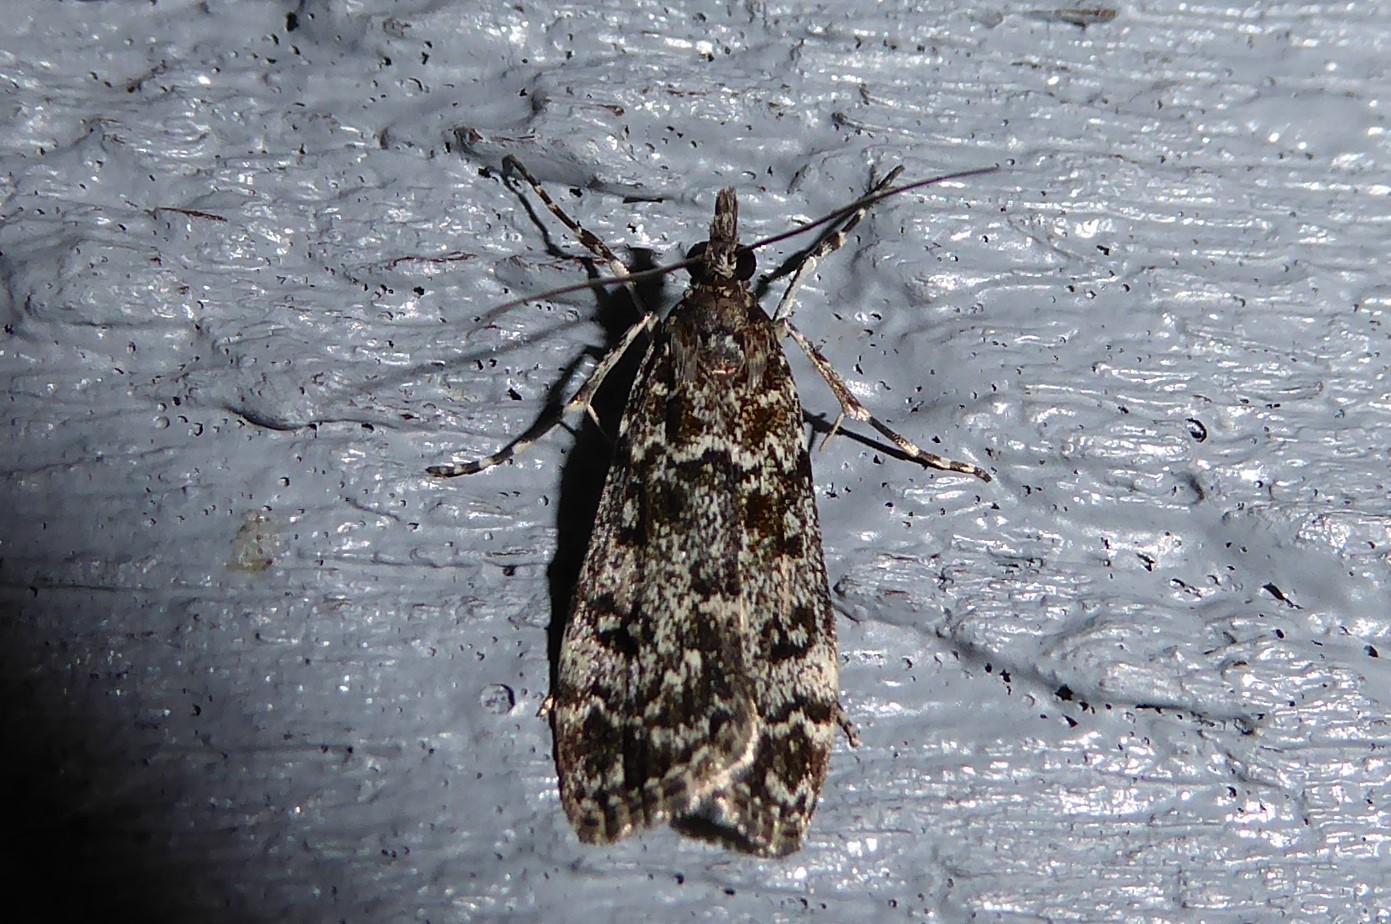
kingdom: Animalia
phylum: Arthropoda
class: Insecta
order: Lepidoptera
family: Crambidae
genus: Eudonia
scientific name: Eudonia philerga
